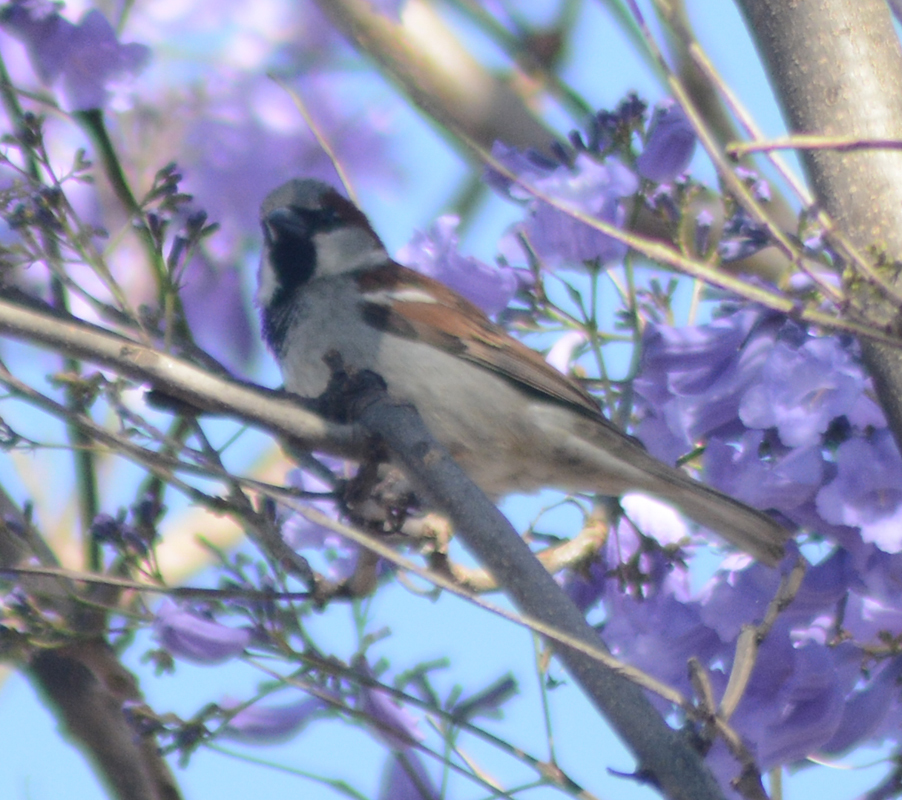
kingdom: Animalia
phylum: Chordata
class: Aves
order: Passeriformes
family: Passeridae
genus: Passer
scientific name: Passer domesticus
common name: House sparrow
